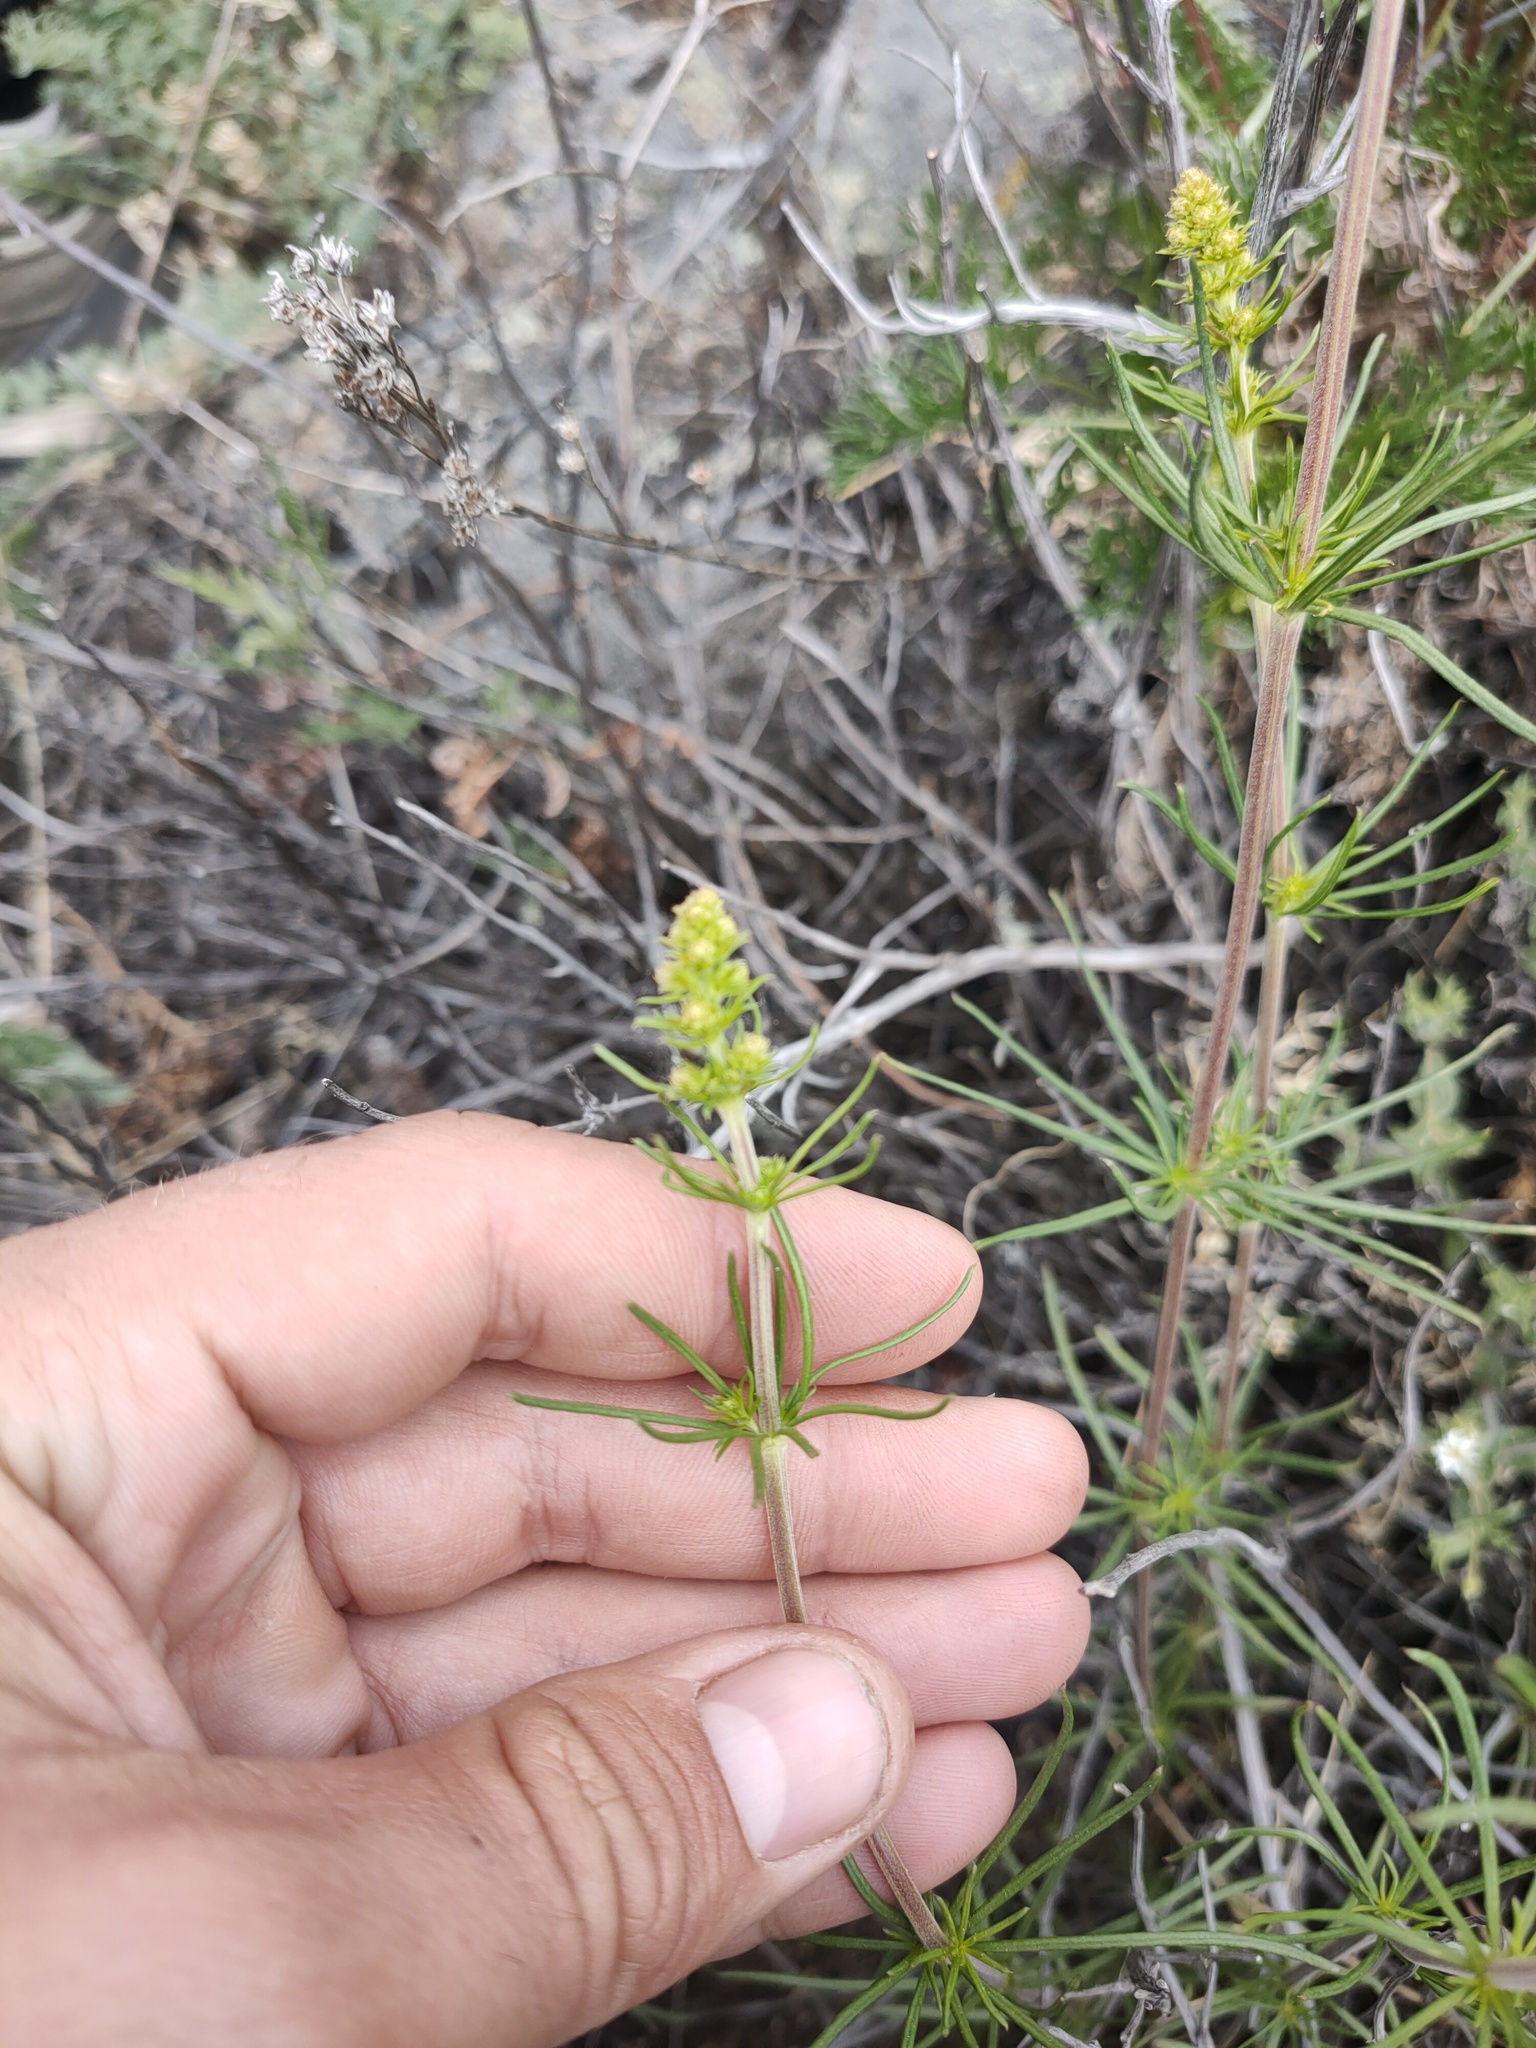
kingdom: Plantae
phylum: Tracheophyta
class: Magnoliopsida
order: Gentianales
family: Rubiaceae
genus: Galium
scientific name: Galium verum
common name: Lady's bedstraw
